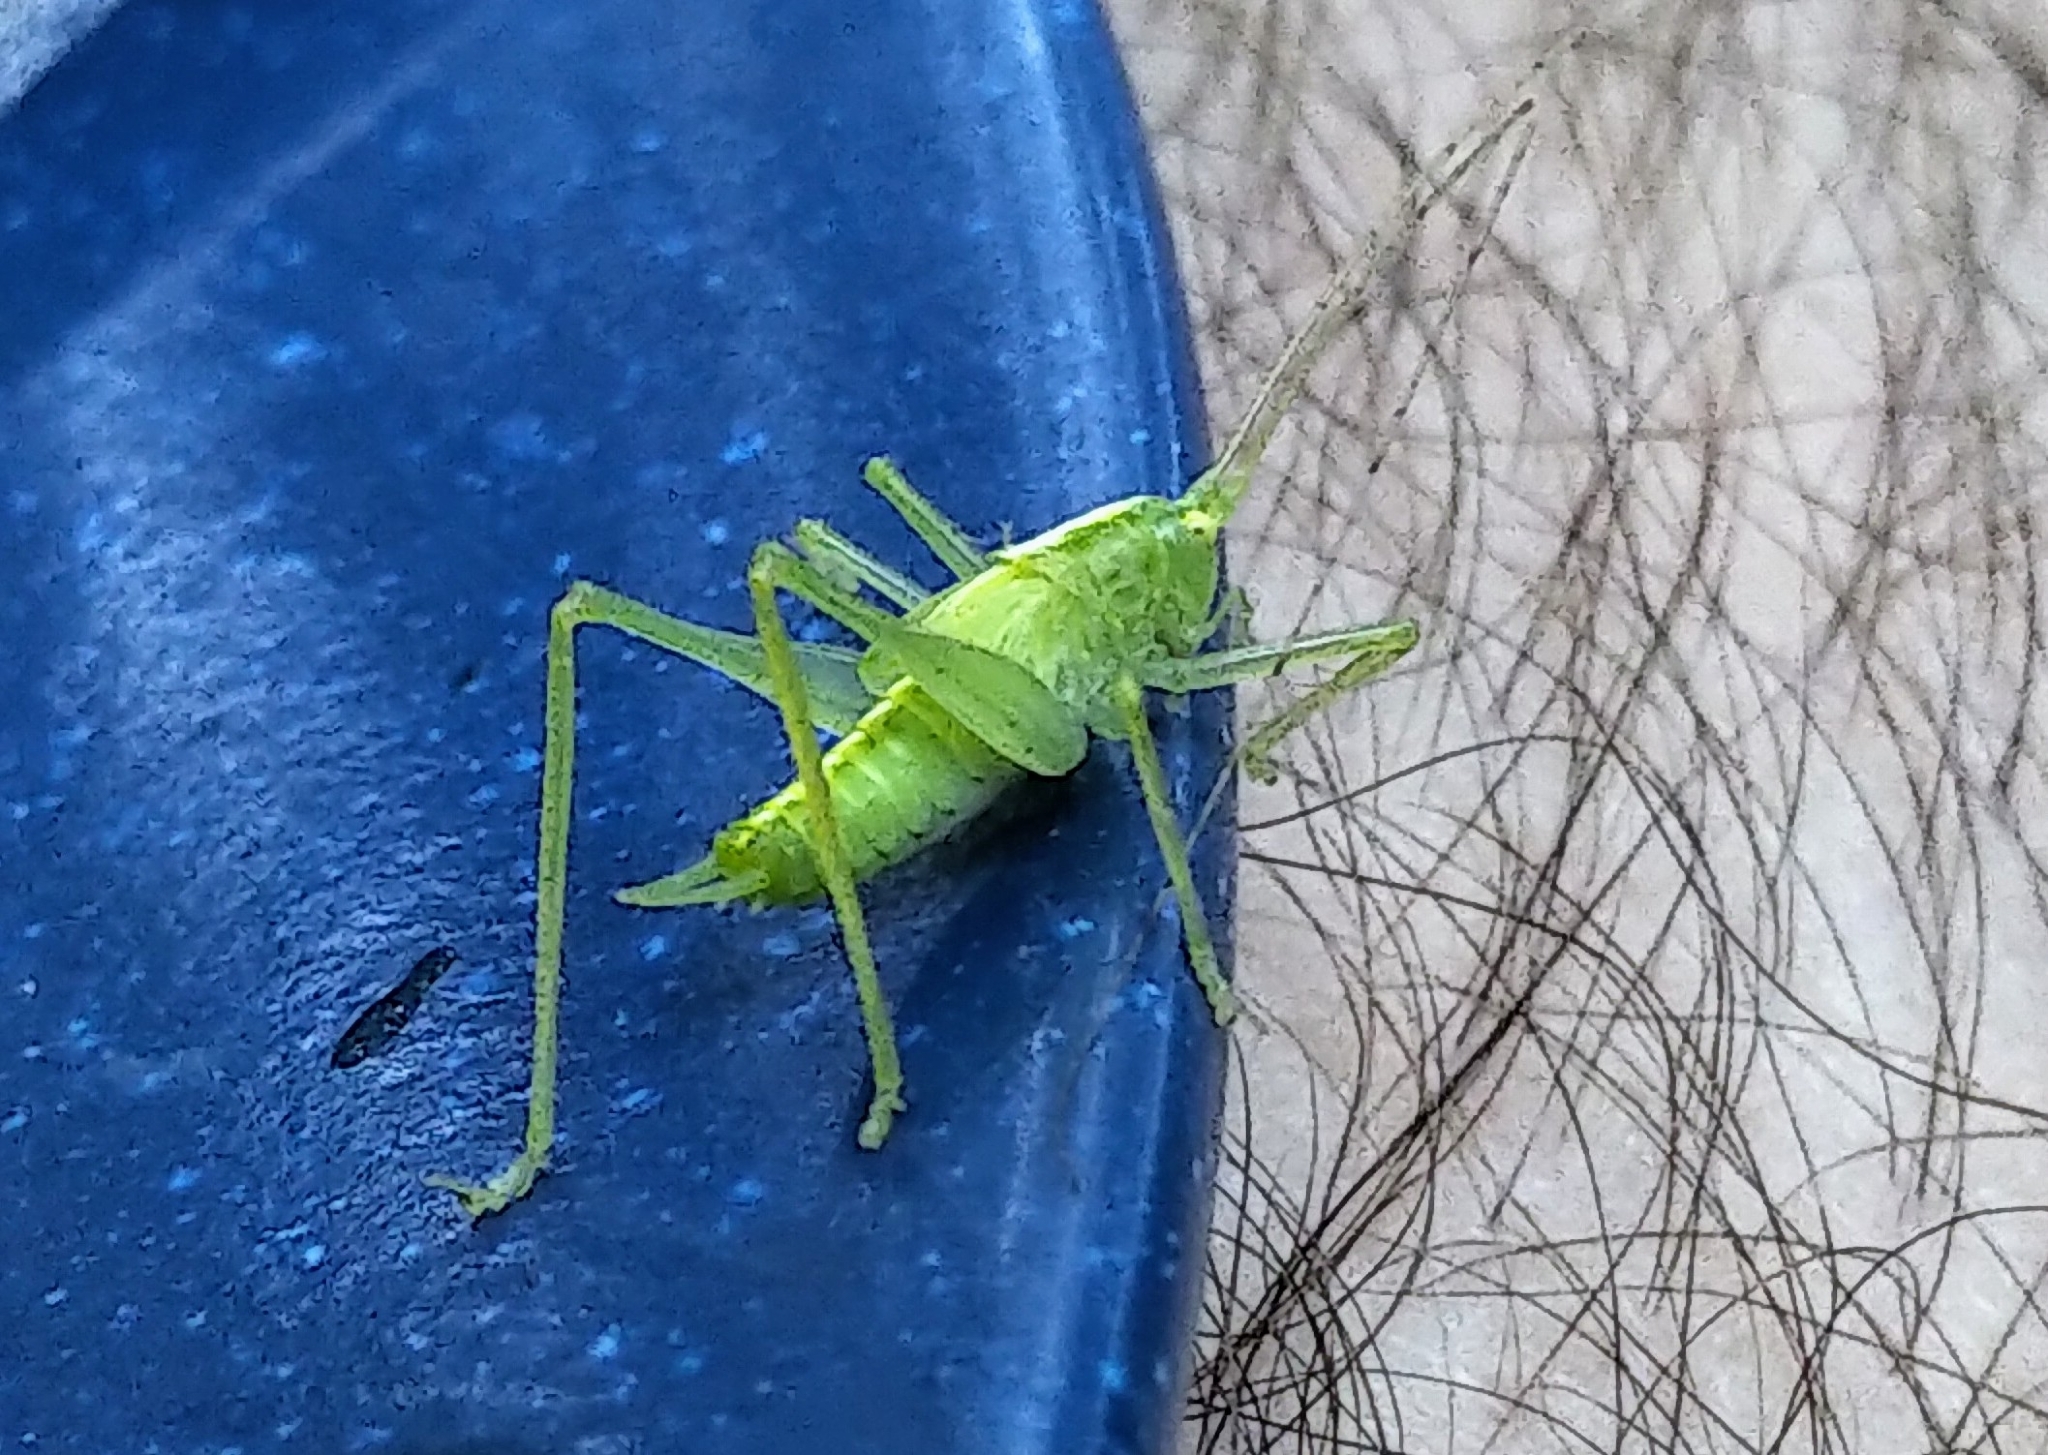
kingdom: Animalia
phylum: Arthropoda
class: Insecta
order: Orthoptera
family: Tettigoniidae
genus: Meconema
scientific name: Meconema thalassinum
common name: Oak bush-cricket
